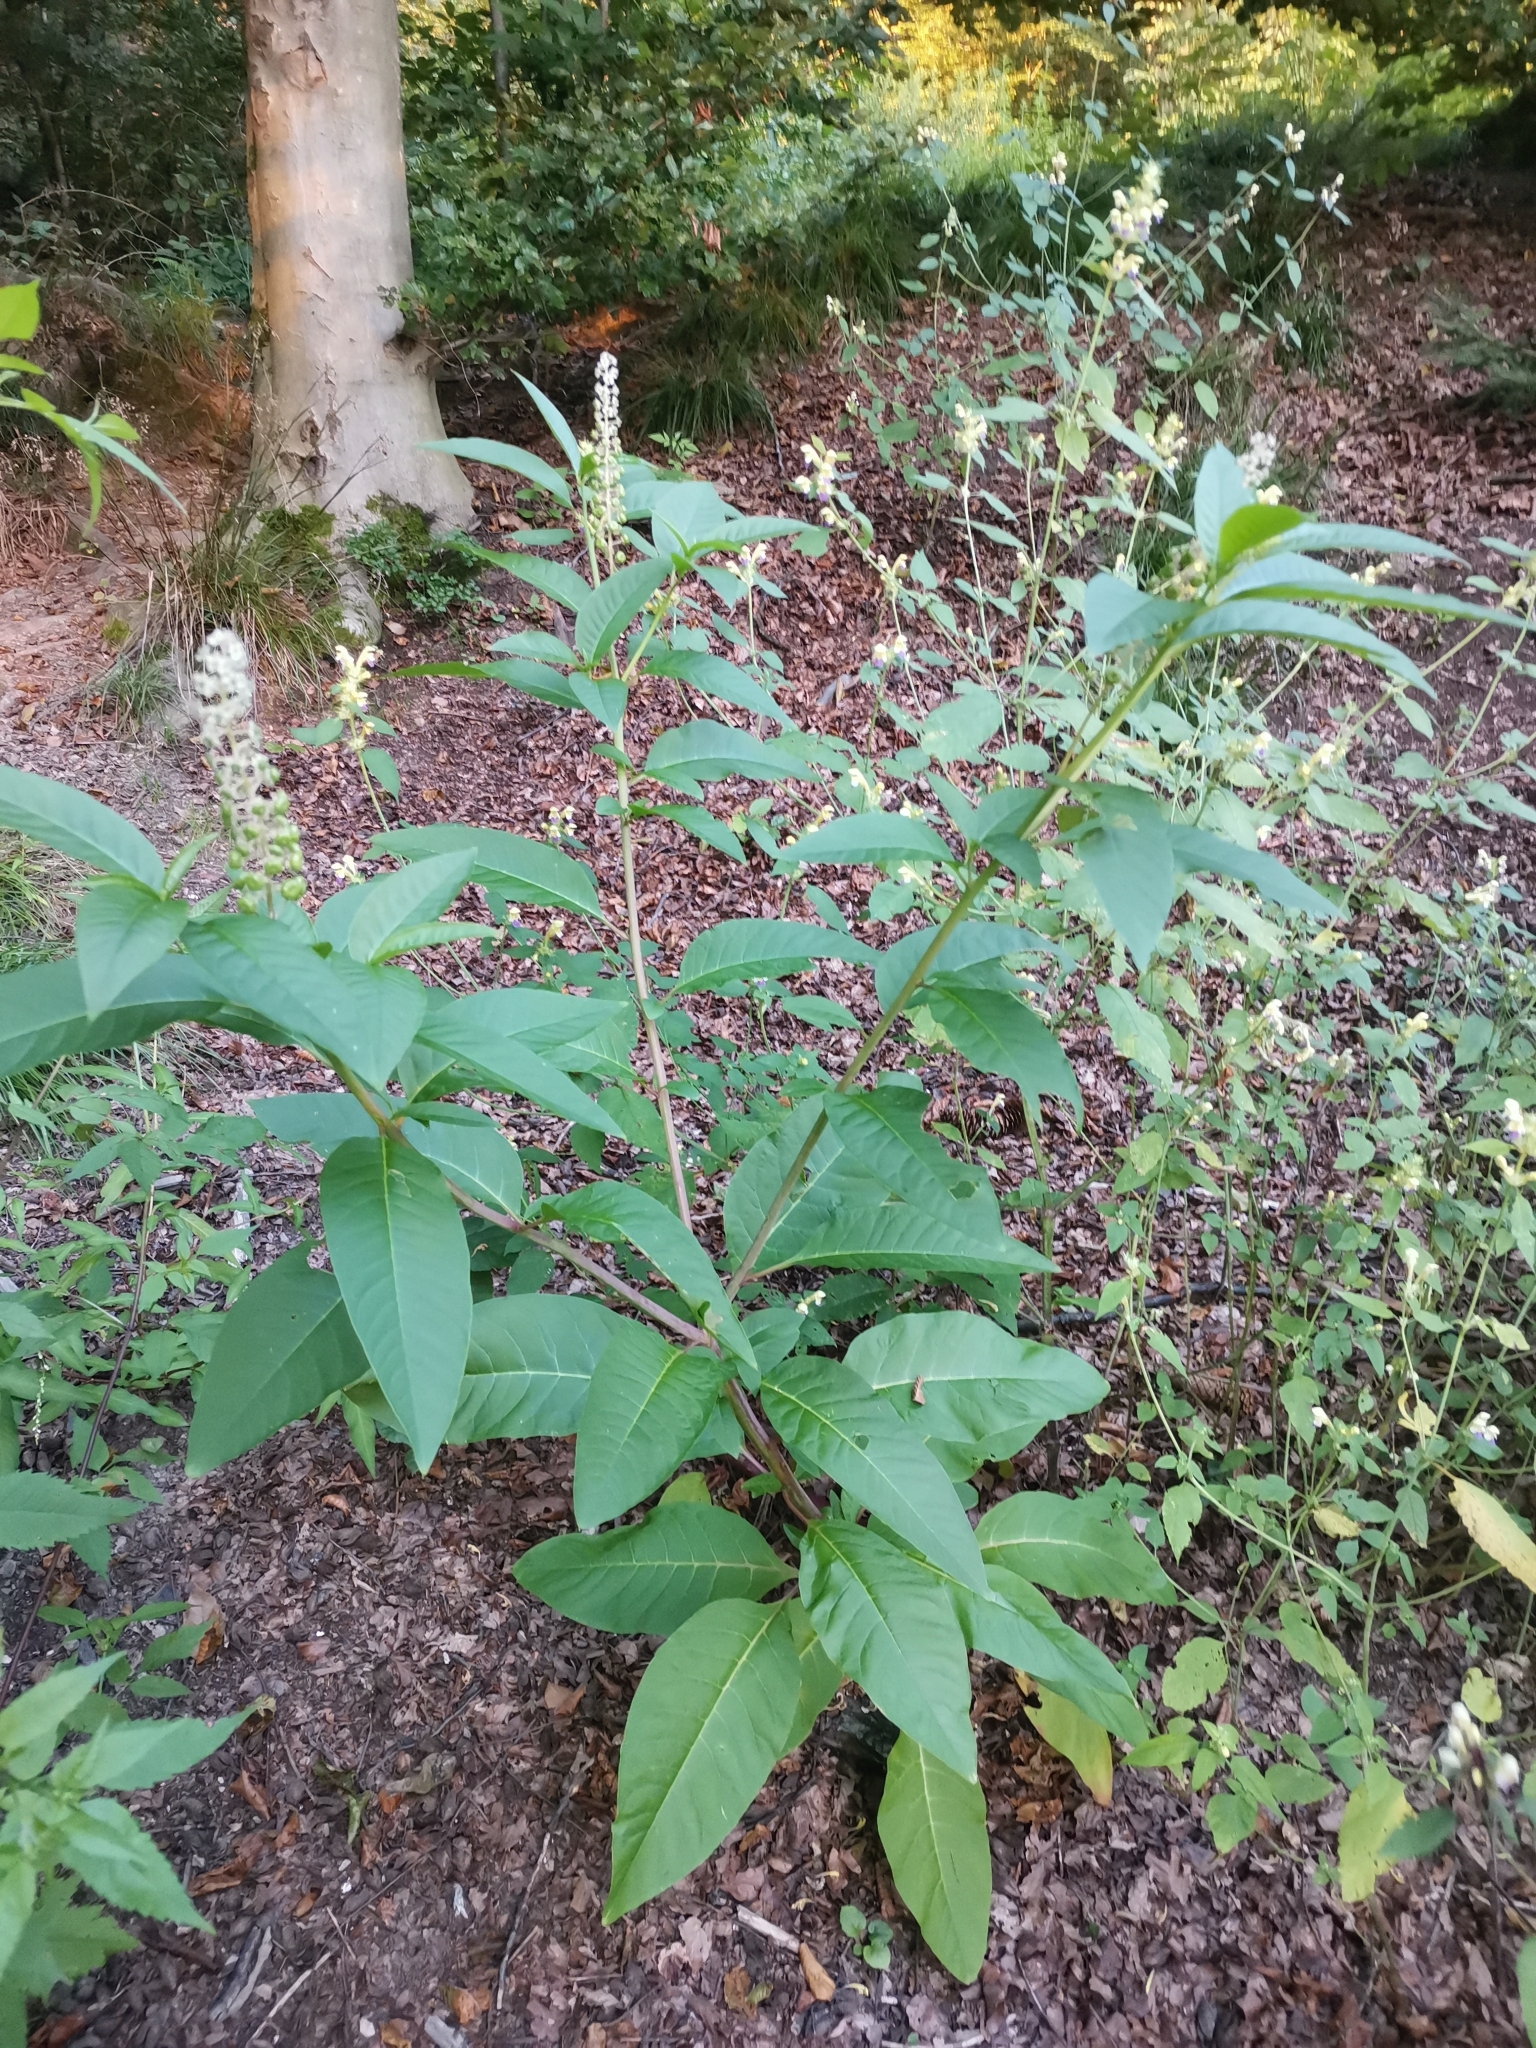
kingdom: Plantae
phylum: Tracheophyta
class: Magnoliopsida
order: Caryophyllales
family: Phytolaccaceae
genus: Phytolacca
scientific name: Phytolacca americana
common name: American pokeweed
